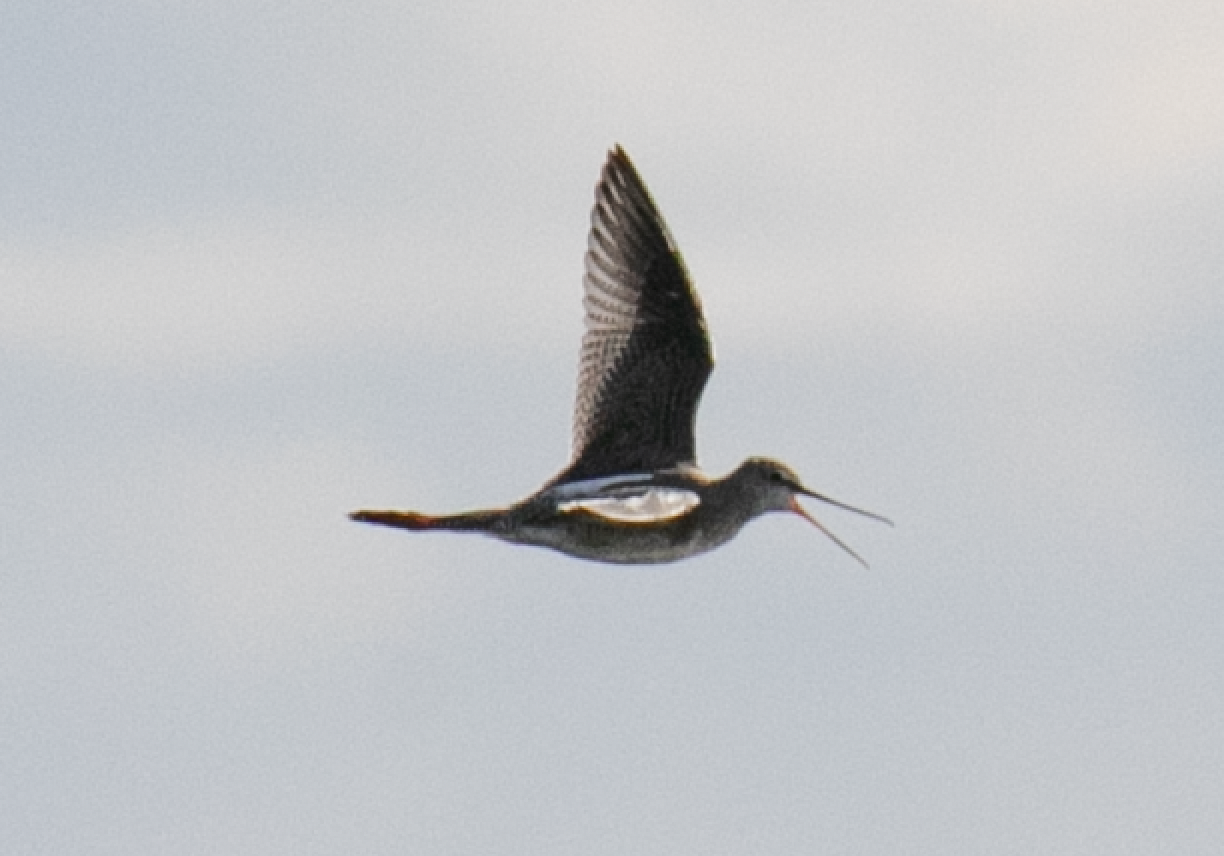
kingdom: Animalia
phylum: Chordata
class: Aves
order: Charadriiformes
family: Scolopacidae
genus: Tringa
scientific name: Tringa erythropus
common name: Spotted redshank
